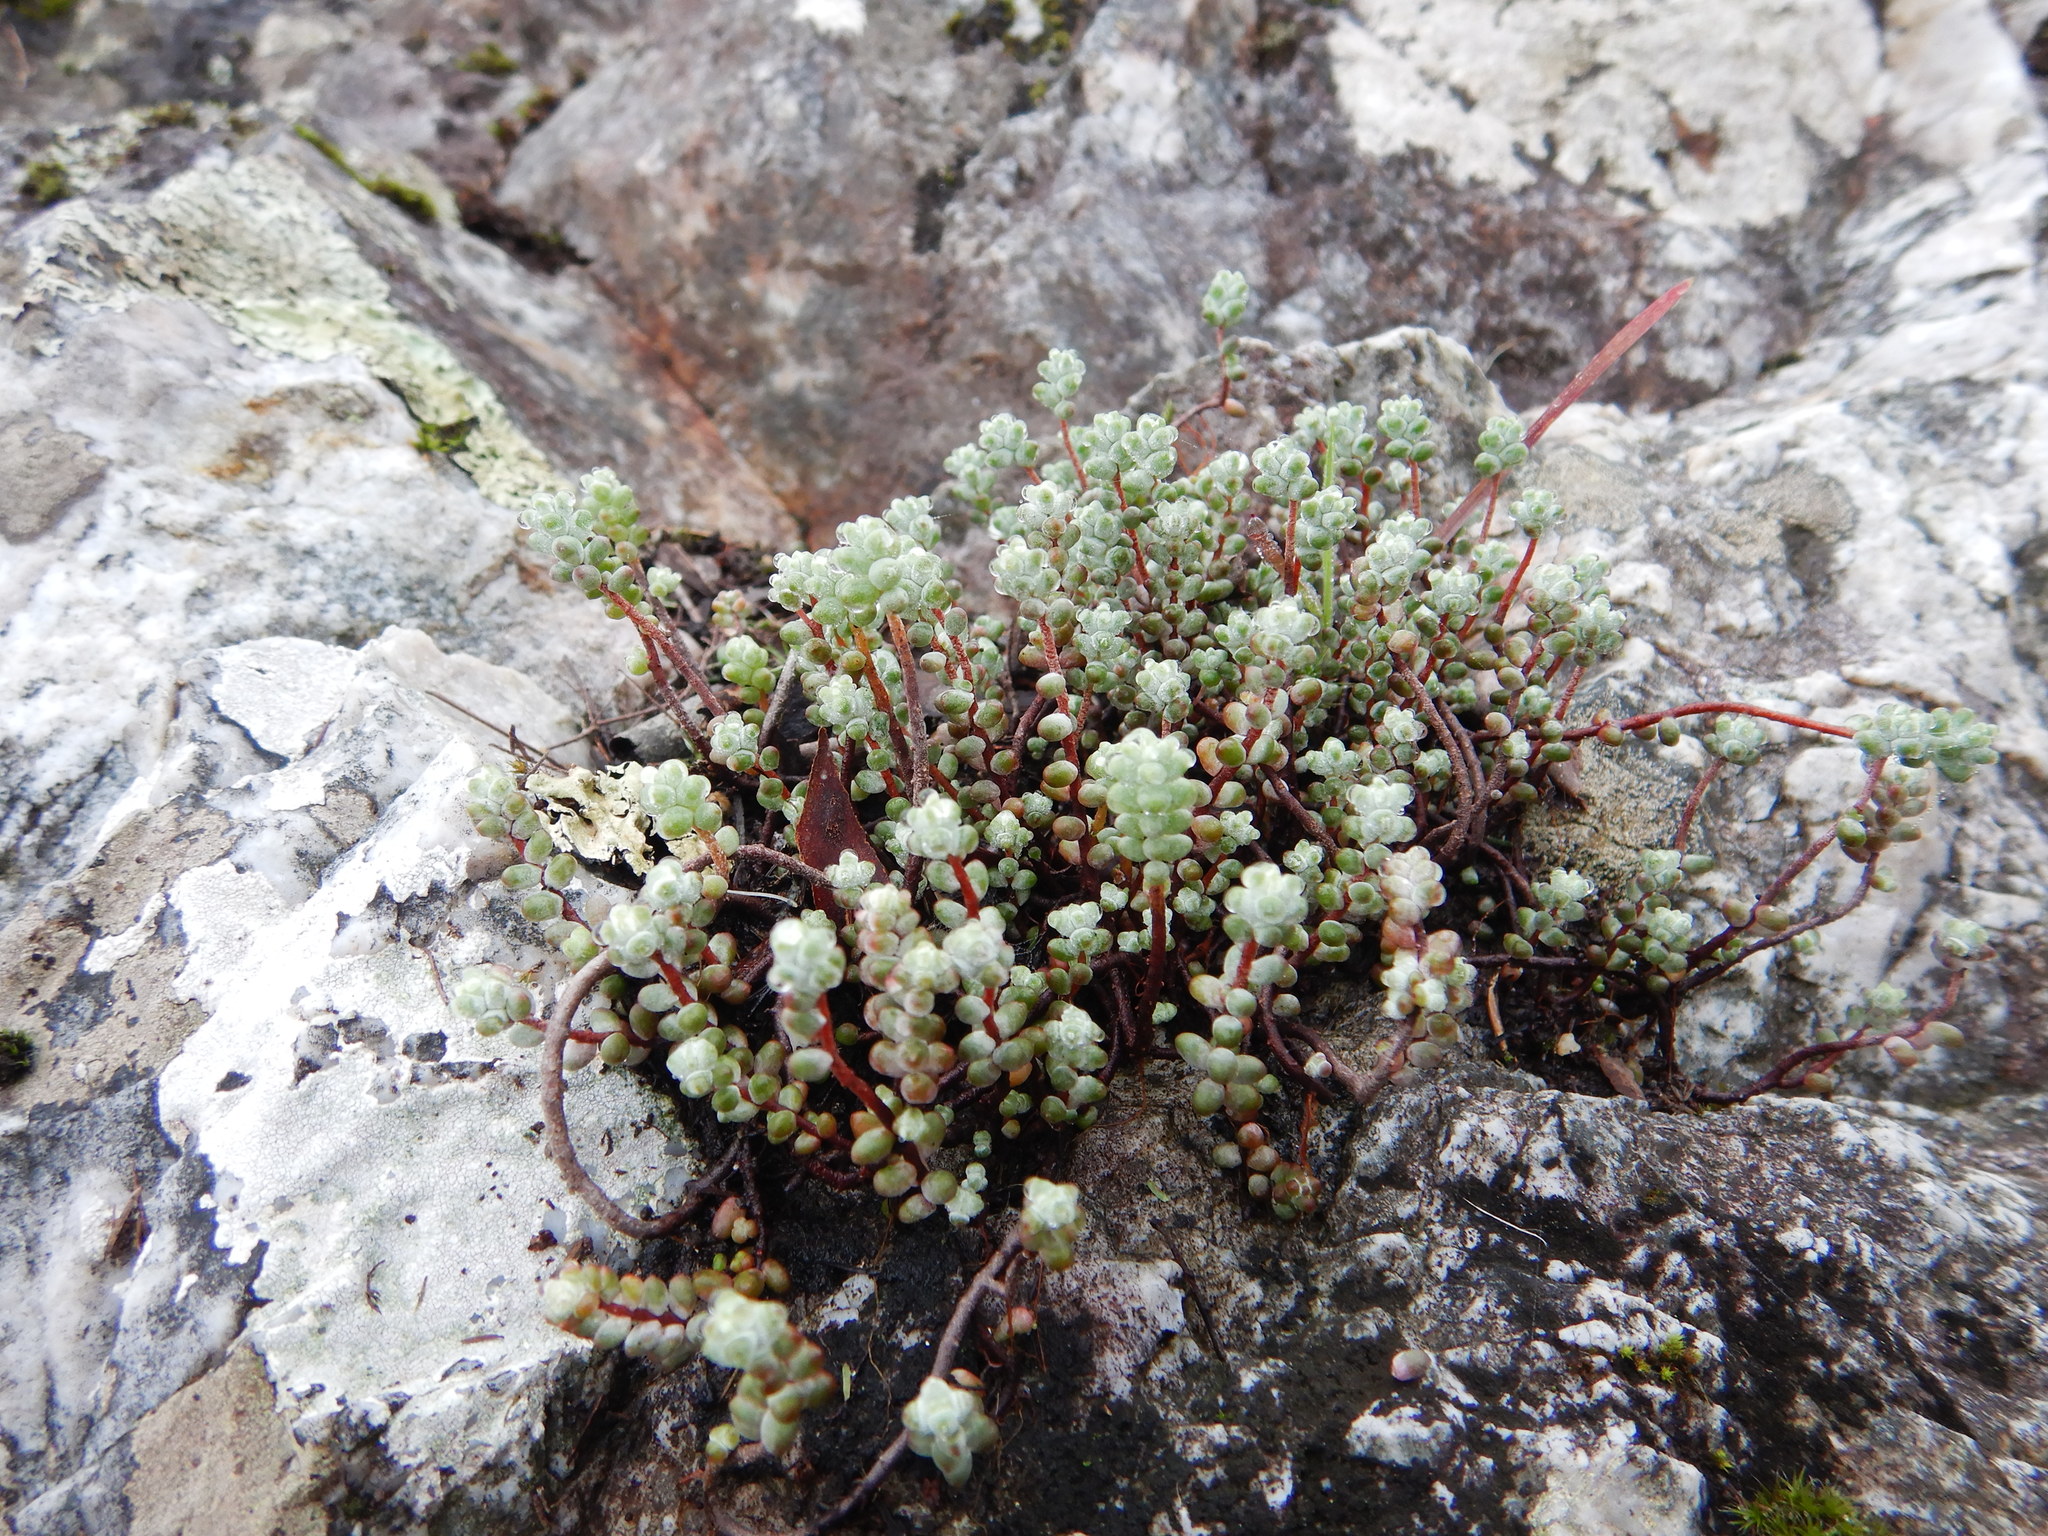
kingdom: Plantae
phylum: Tracheophyta
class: Magnoliopsida
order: Saxifragales
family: Crassulaceae
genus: Sedum
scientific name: Sedum brevifolium
